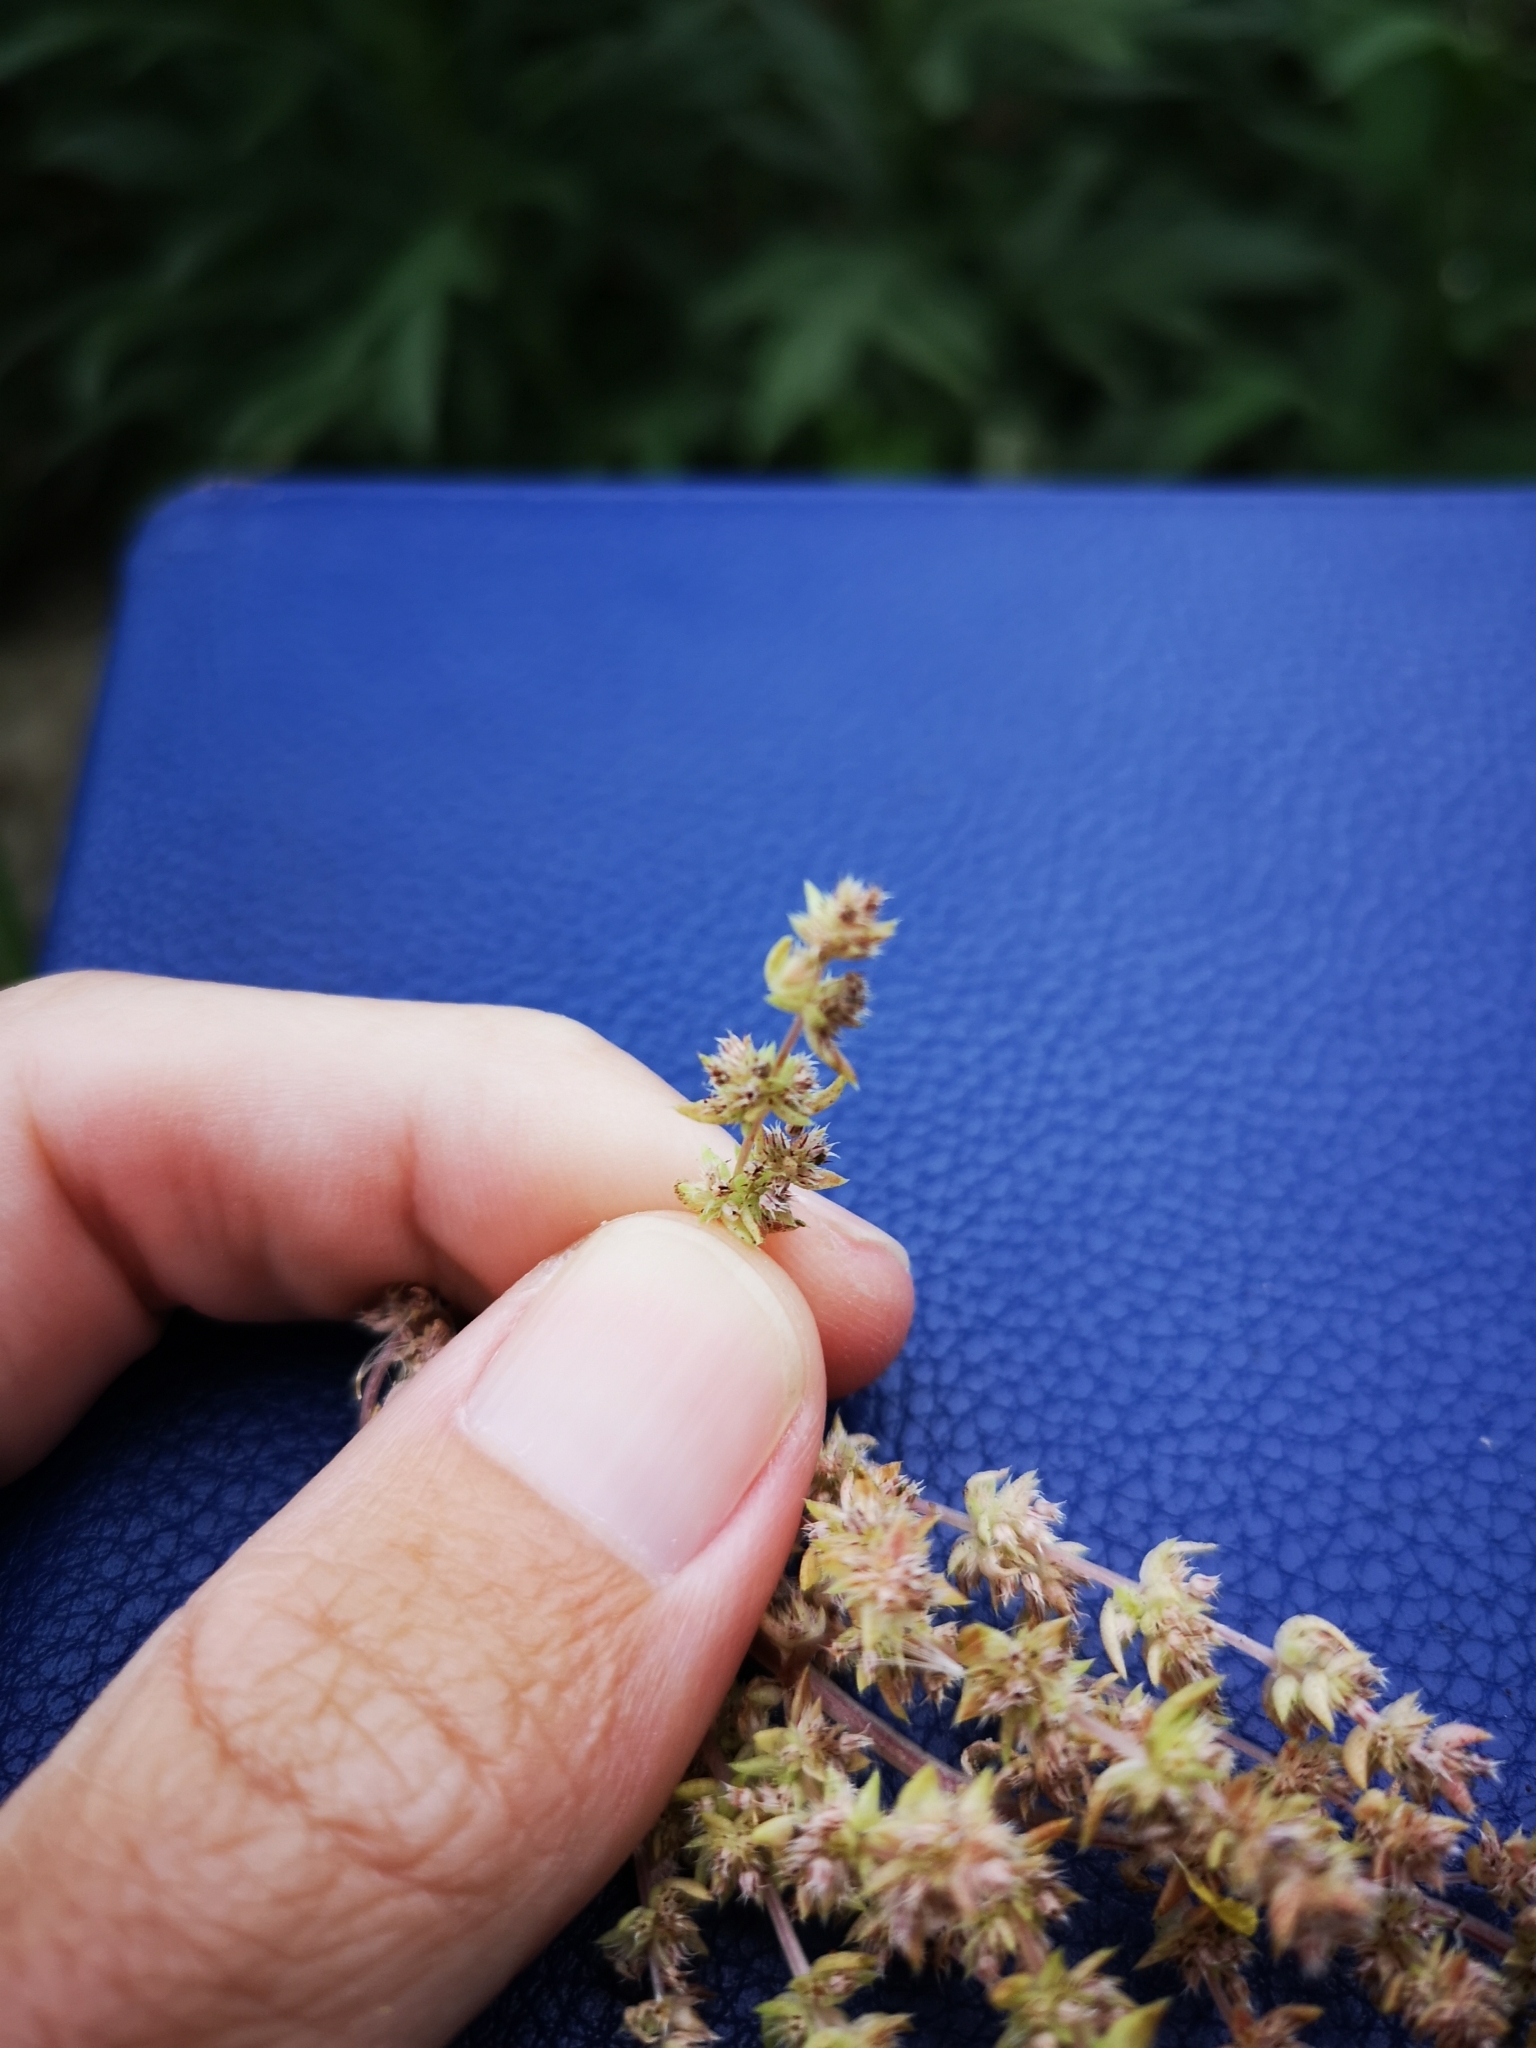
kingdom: Plantae
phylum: Tracheophyta
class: Magnoliopsida
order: Saxifragales
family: Crassulaceae
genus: Crassula
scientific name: Crassula colligata
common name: Pygmyweed
